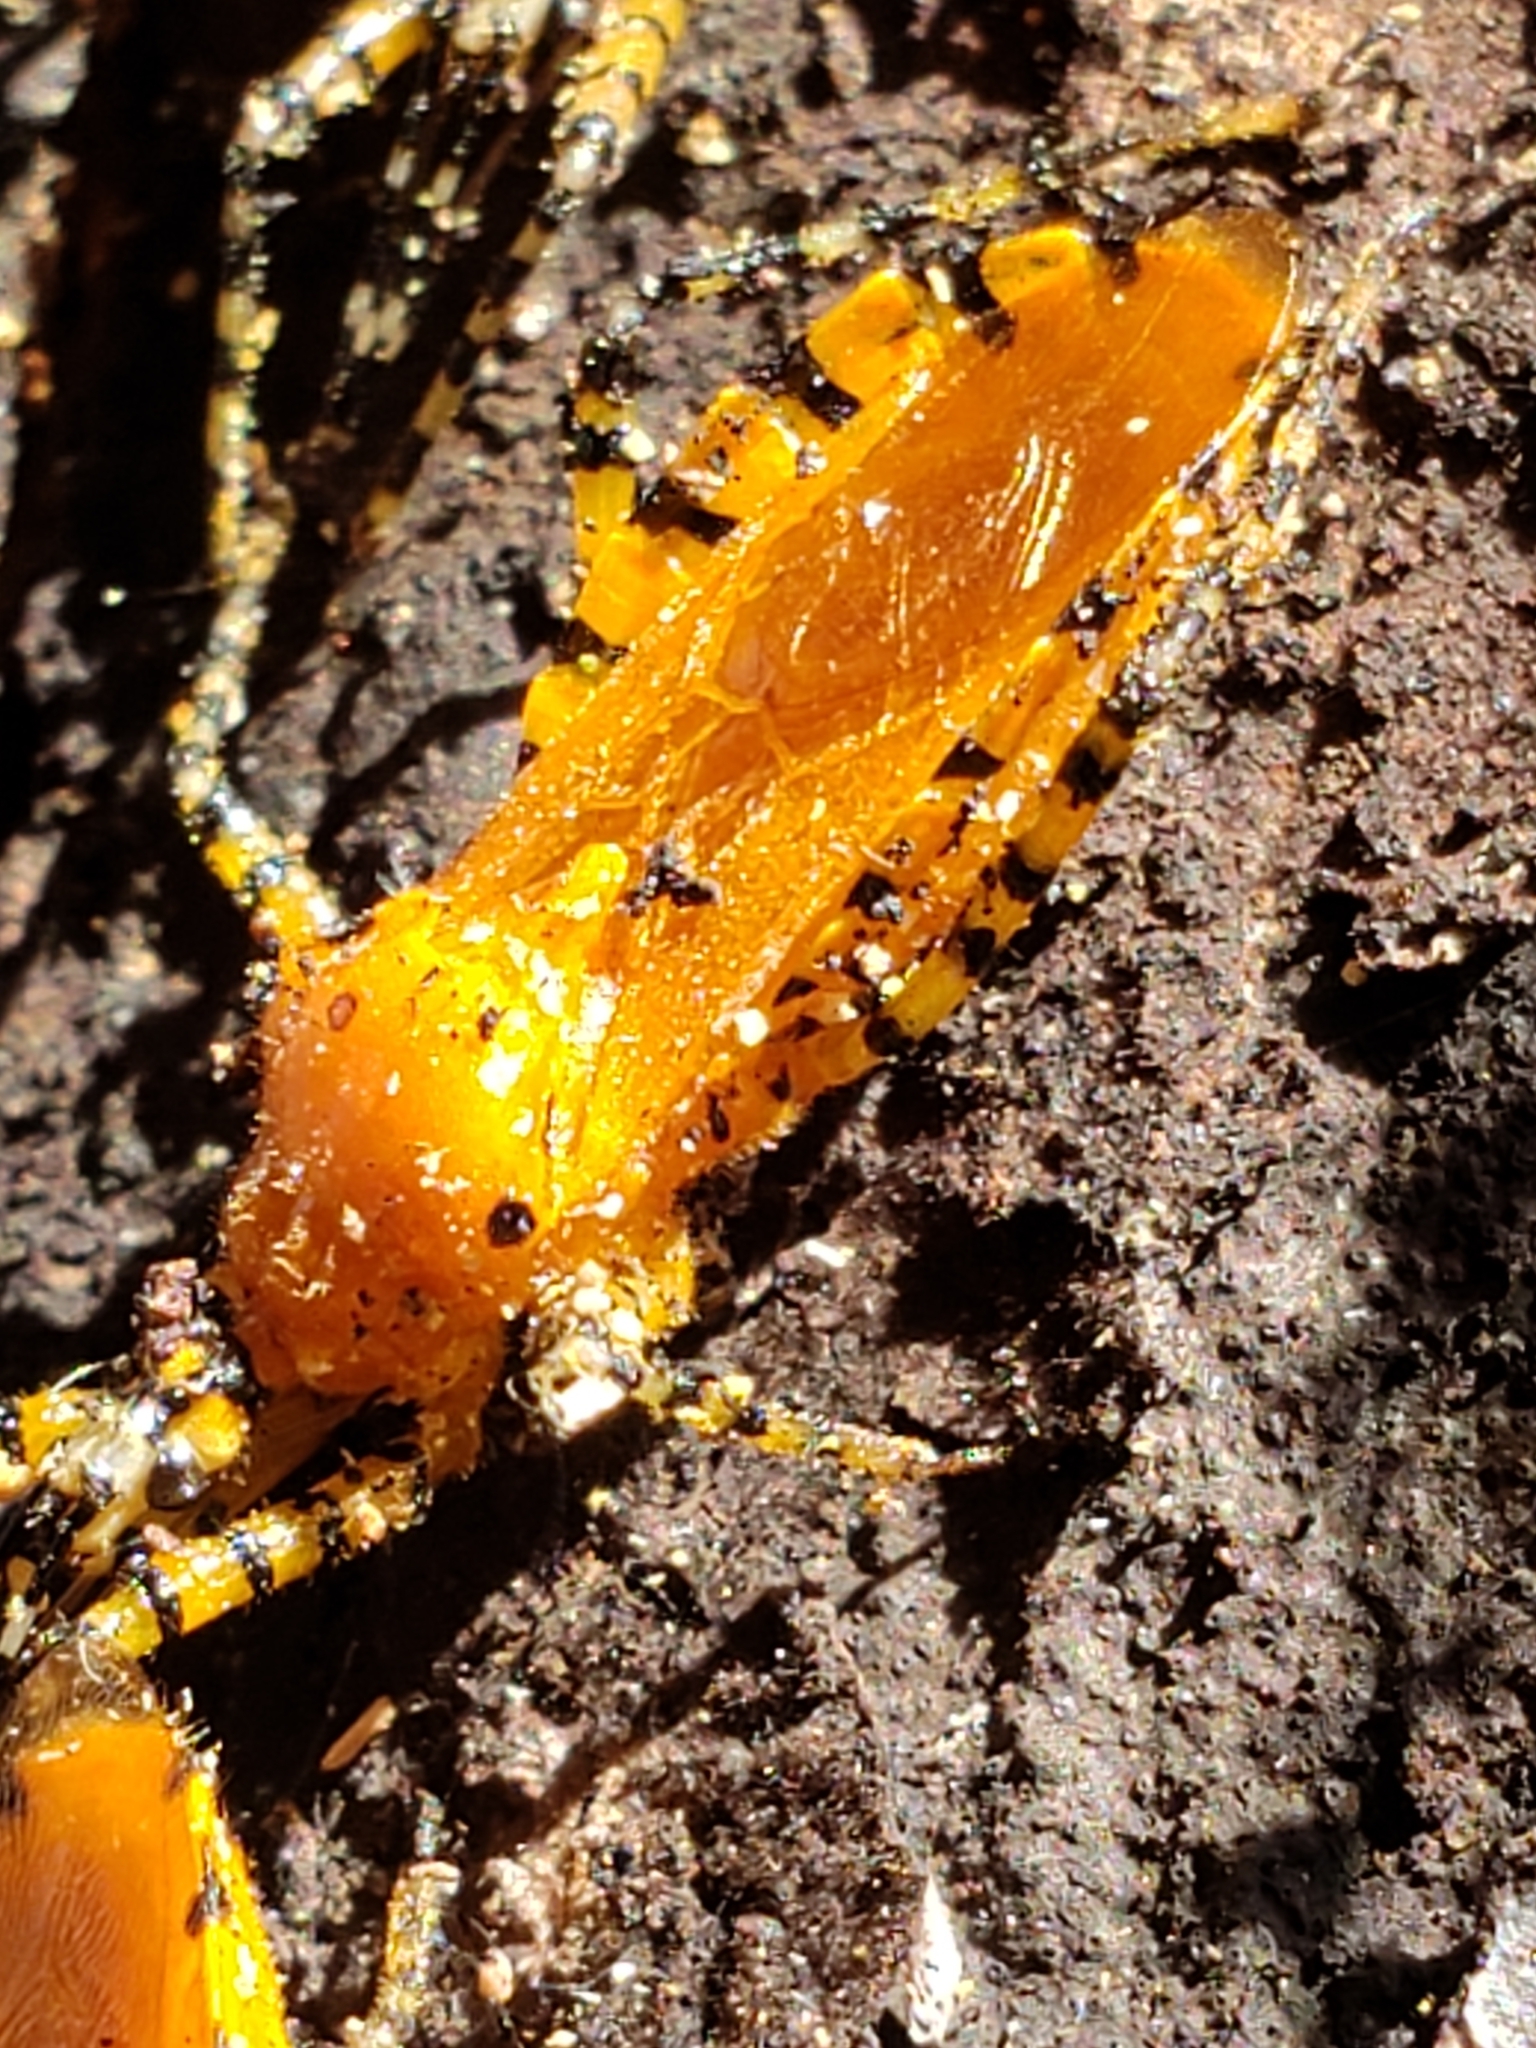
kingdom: Animalia
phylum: Arthropoda
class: Insecta
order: Hemiptera
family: Reduviidae
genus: Pselliopus
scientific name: Pselliopus barberi
